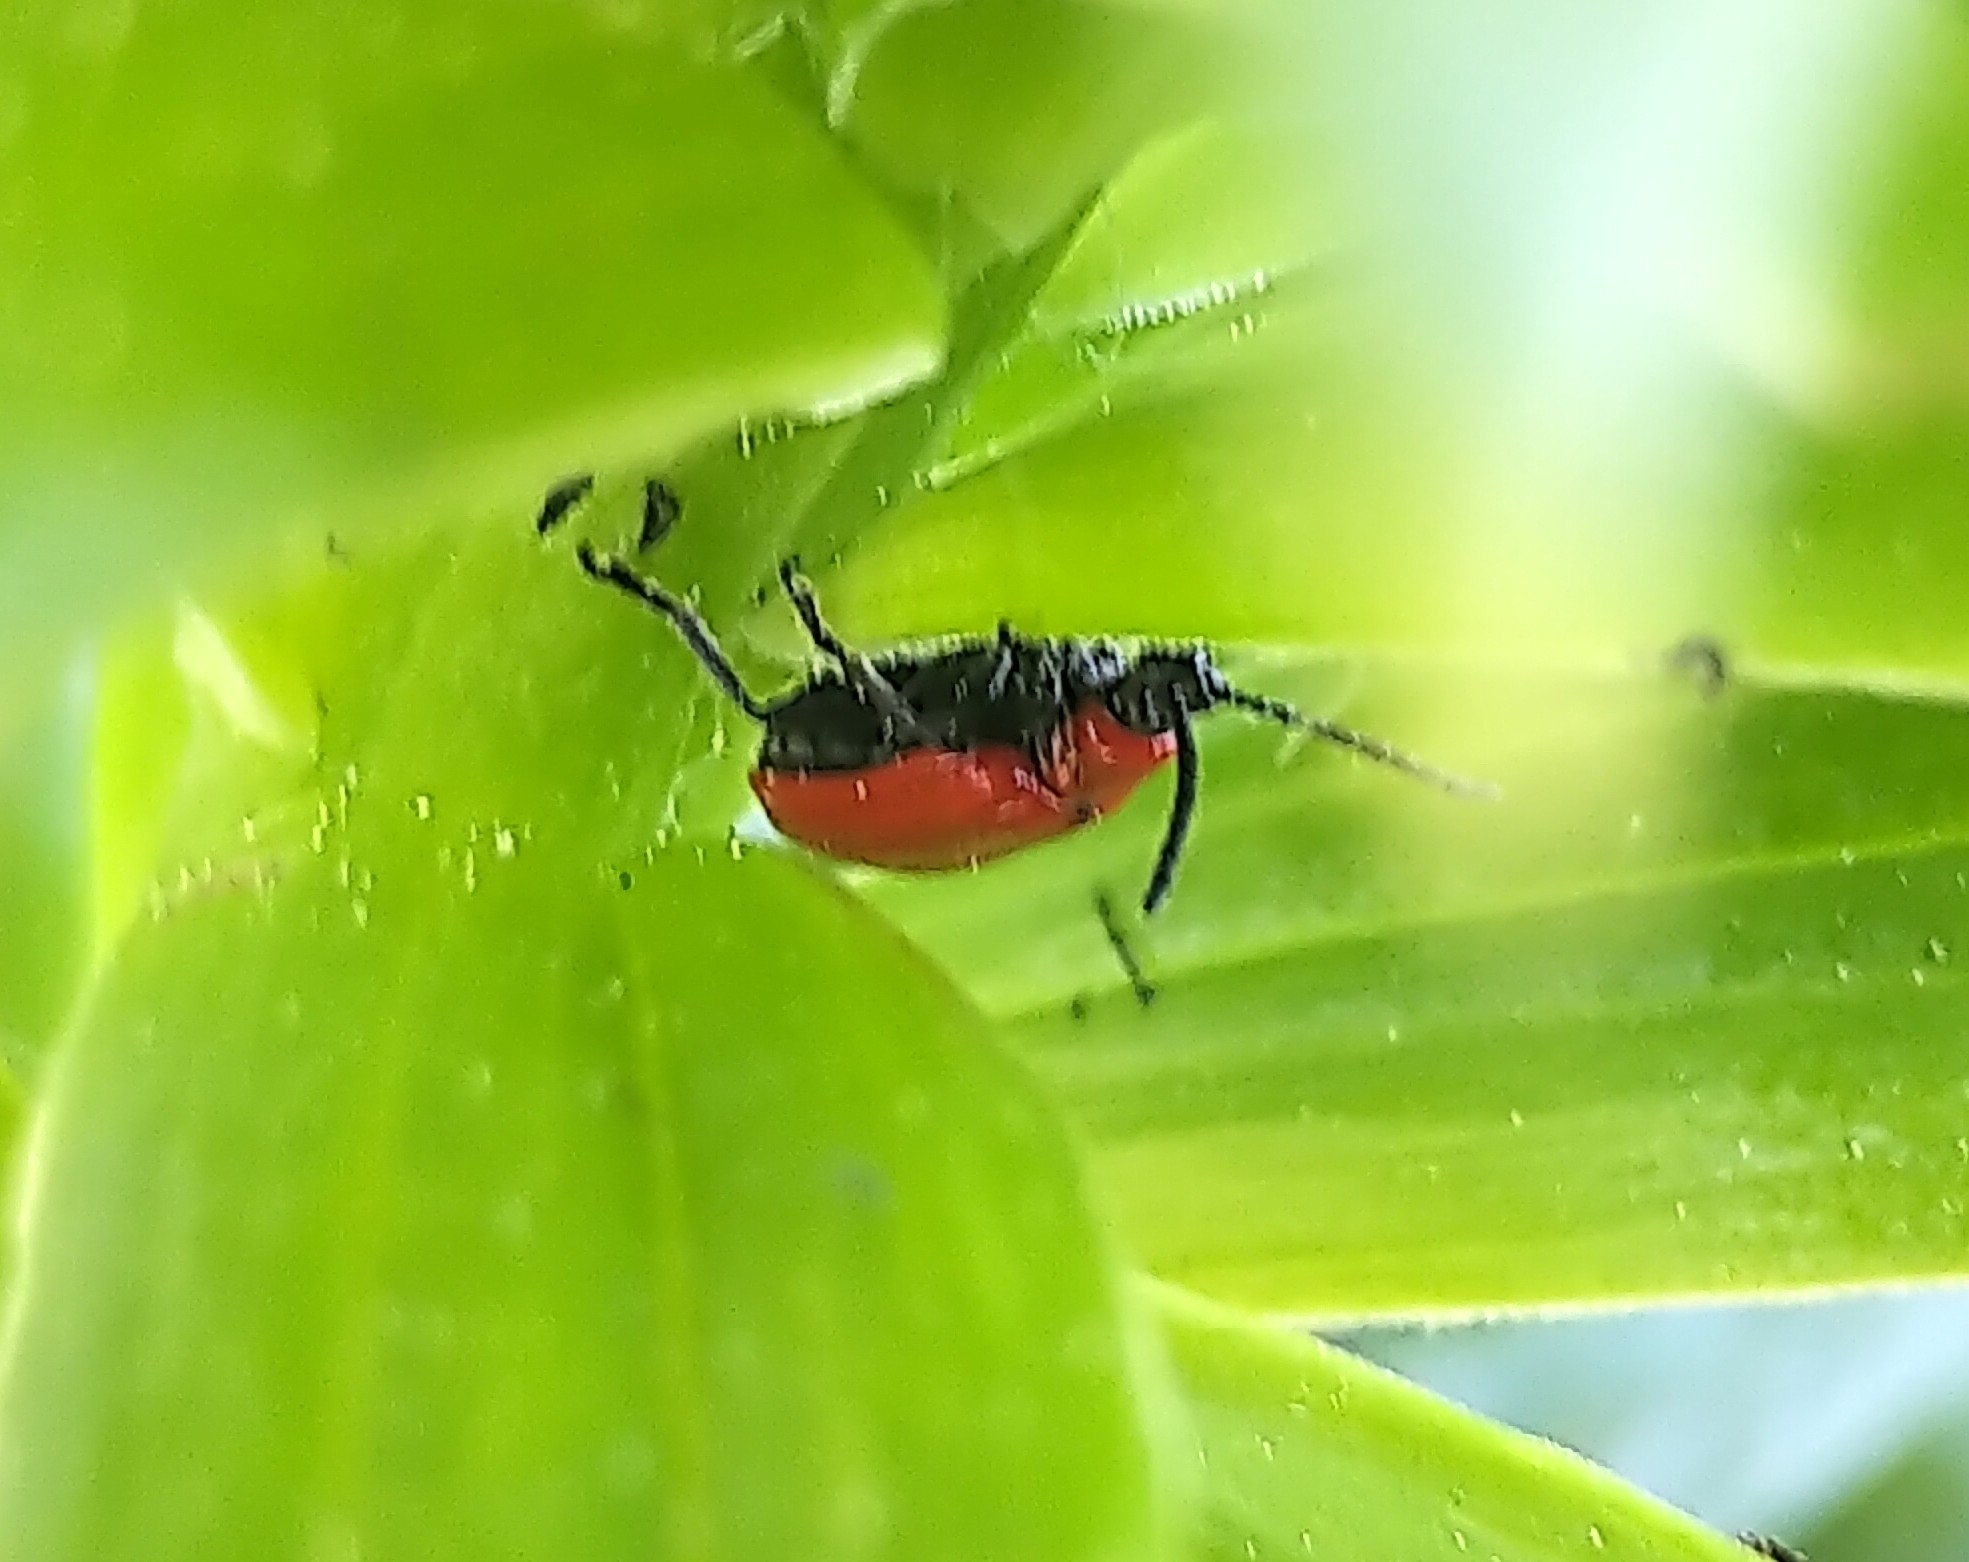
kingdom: Animalia
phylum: Arthropoda
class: Insecta
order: Coleoptera
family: Chrysomelidae
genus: Lilioceris
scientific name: Lilioceris lilii
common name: Lily beetle
